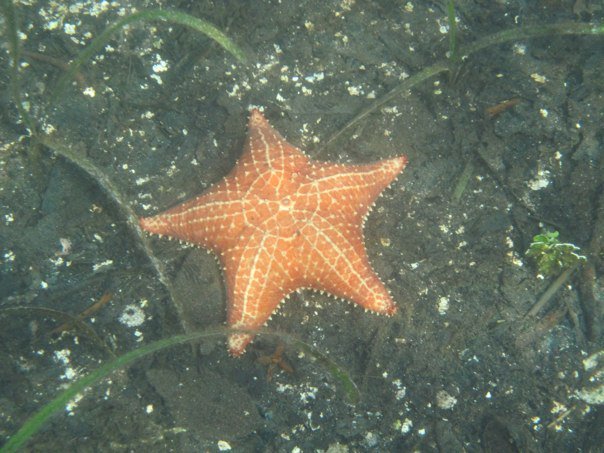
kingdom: Animalia
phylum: Echinodermata
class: Asteroidea
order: Valvatida
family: Oreasteridae
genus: Oreaster
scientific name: Oreaster reticulatus
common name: Cushion sea star
